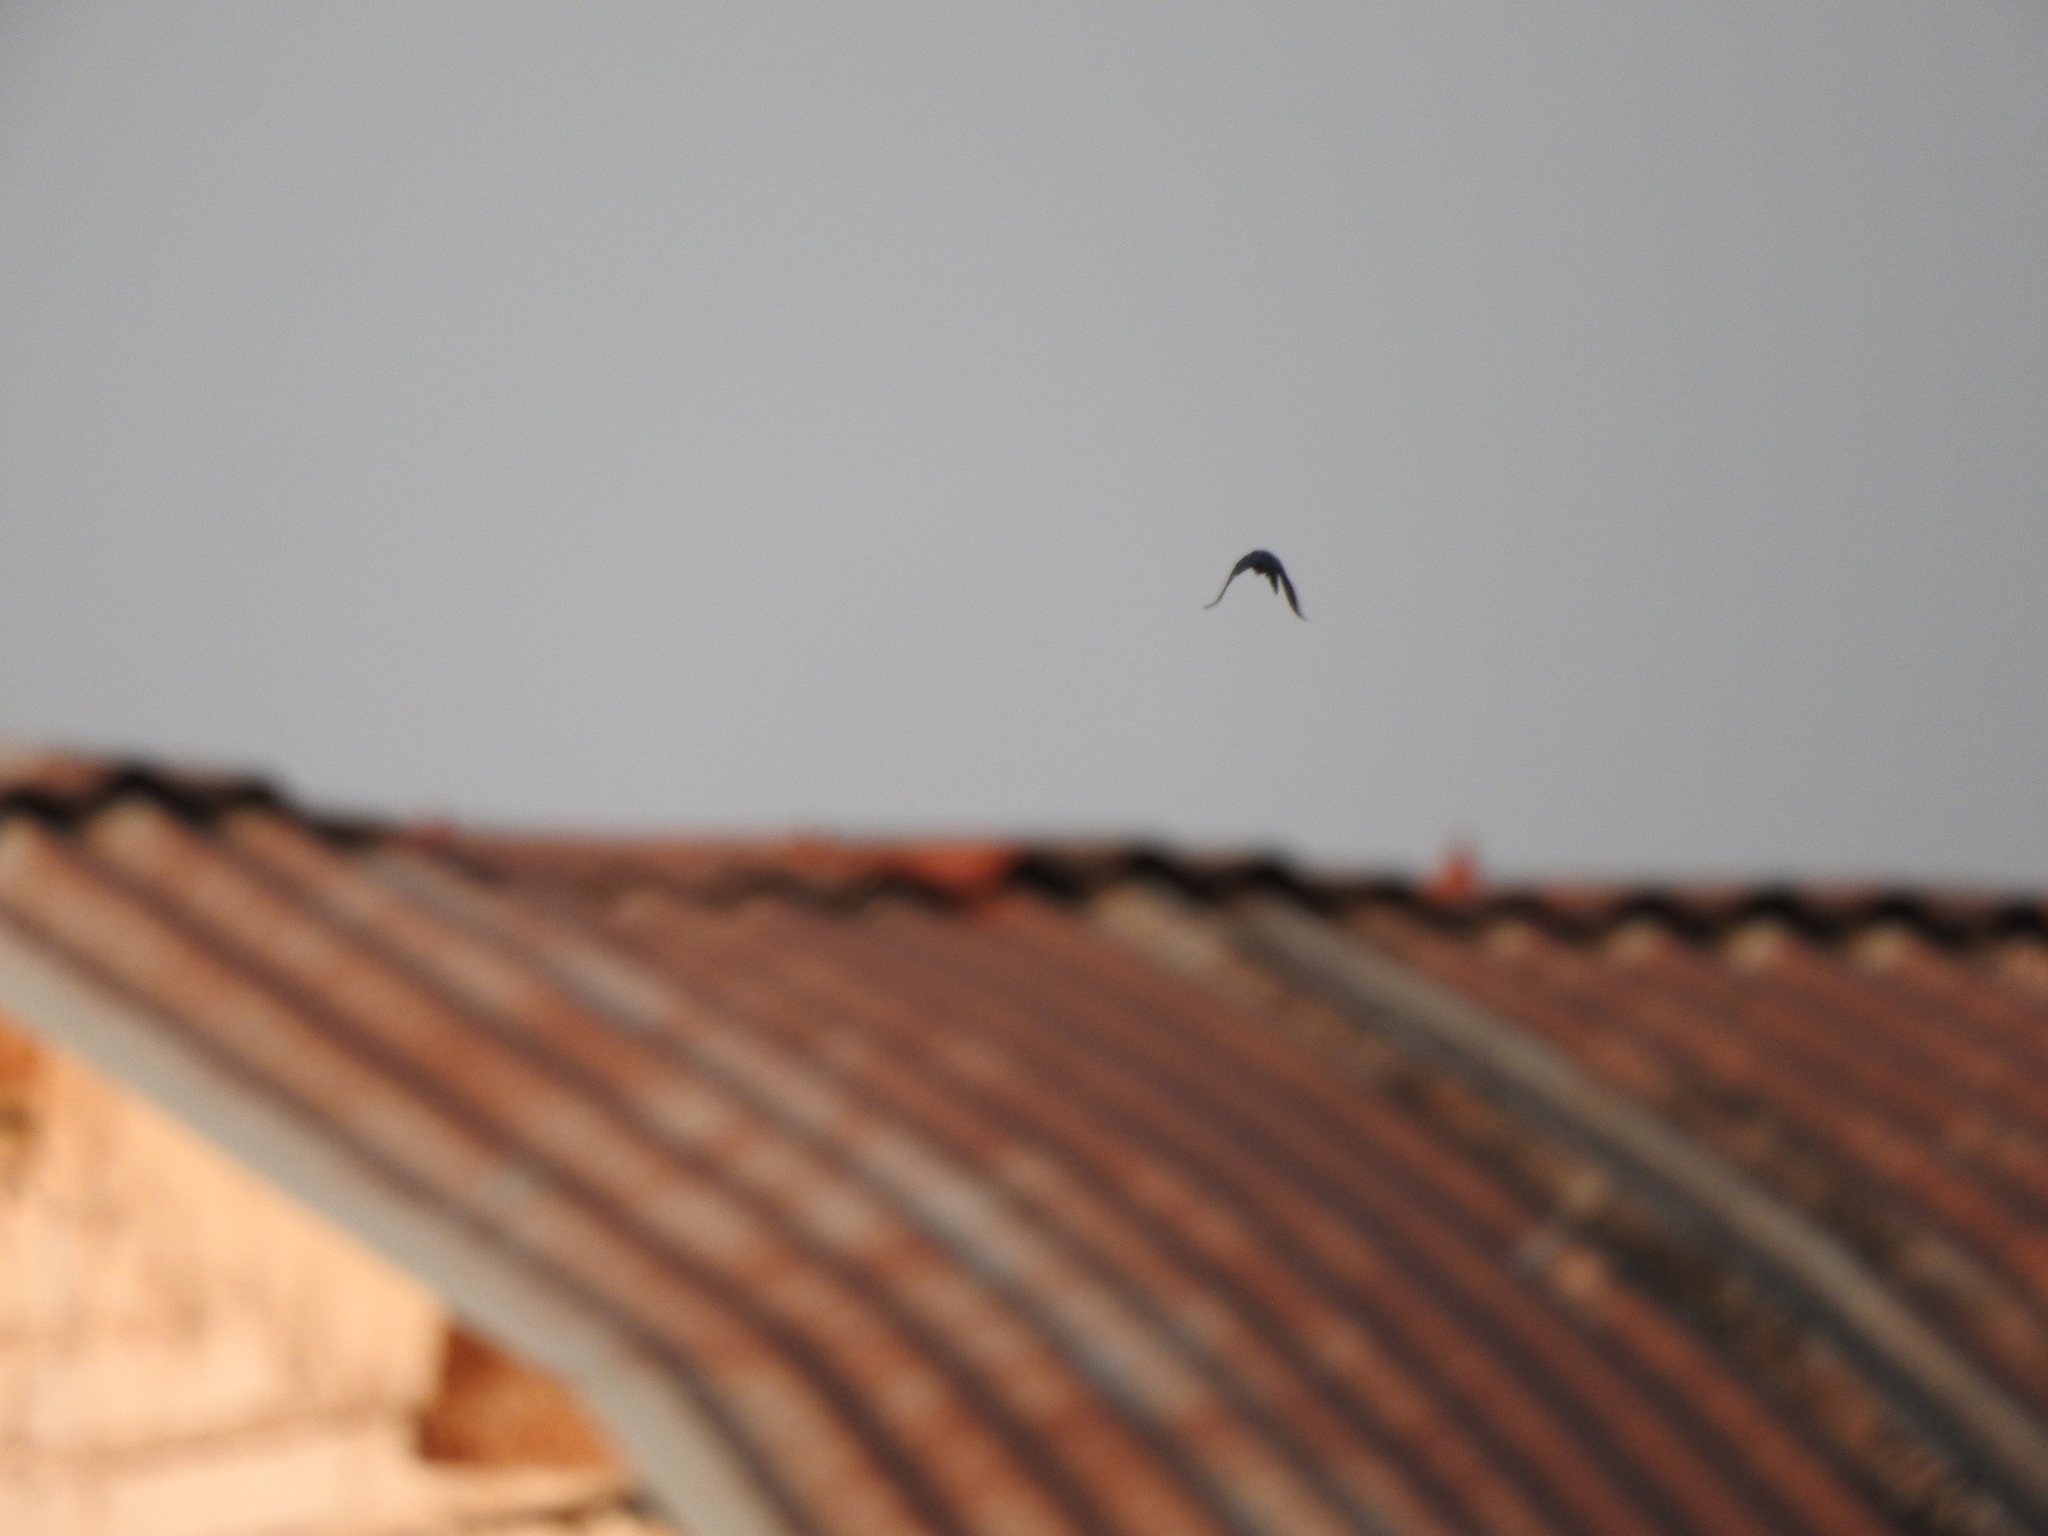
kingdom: Animalia
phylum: Chordata
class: Aves
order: Passeriformes
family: Icteridae
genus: Quiscalus
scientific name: Quiscalus mexicanus
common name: Great-tailed grackle
